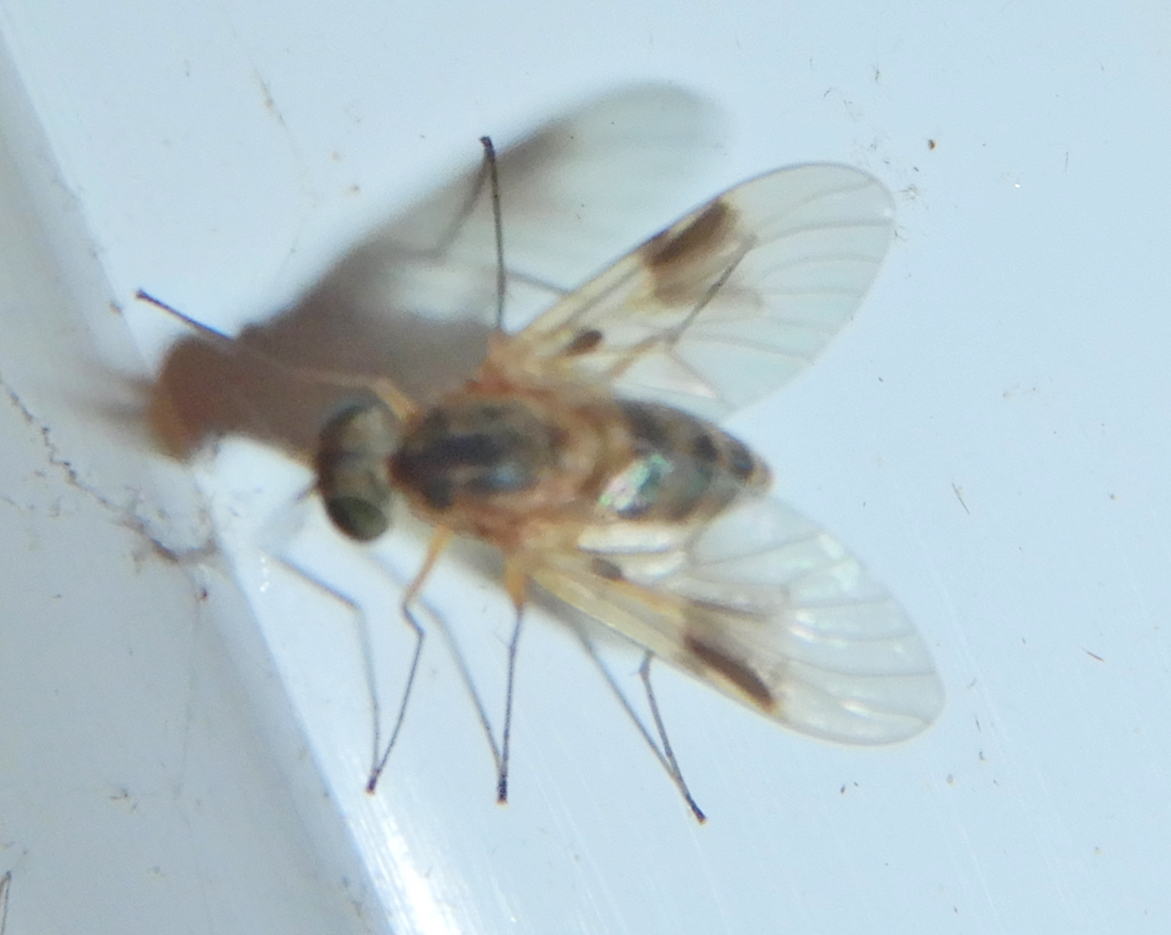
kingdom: Animalia
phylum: Arthropoda
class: Insecta
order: Diptera
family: Rhagionidae
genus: Chrysopilus
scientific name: Chrysopilus quadratus
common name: Quadrate snipe fly
